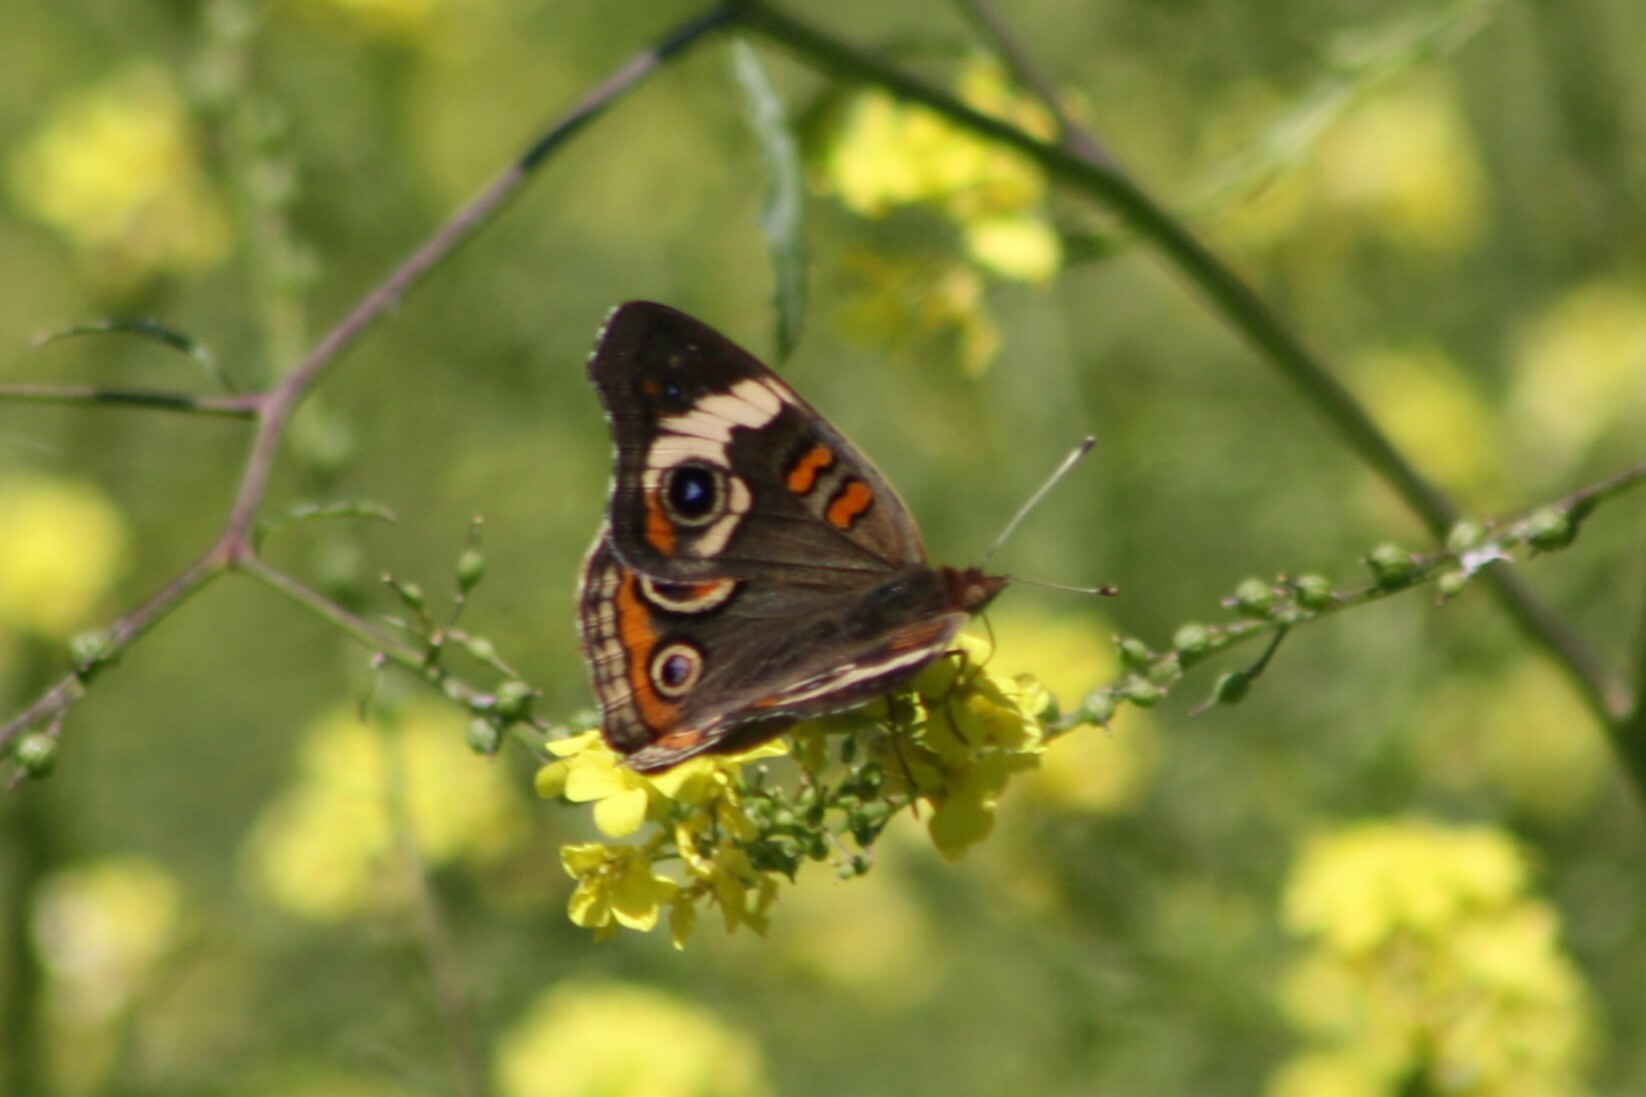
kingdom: Animalia
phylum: Arthropoda
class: Insecta
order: Lepidoptera
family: Nymphalidae
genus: Junonia
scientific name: Junonia coenia
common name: Common buckeye
